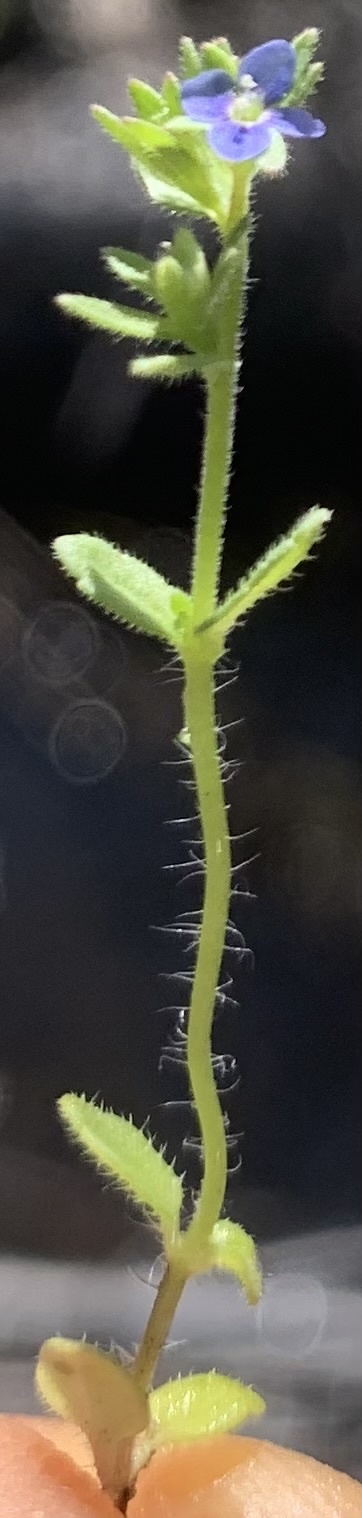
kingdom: Plantae
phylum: Tracheophyta
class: Magnoliopsida
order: Lamiales
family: Plantaginaceae
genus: Veronica
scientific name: Veronica arvensis
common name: Corn speedwell
